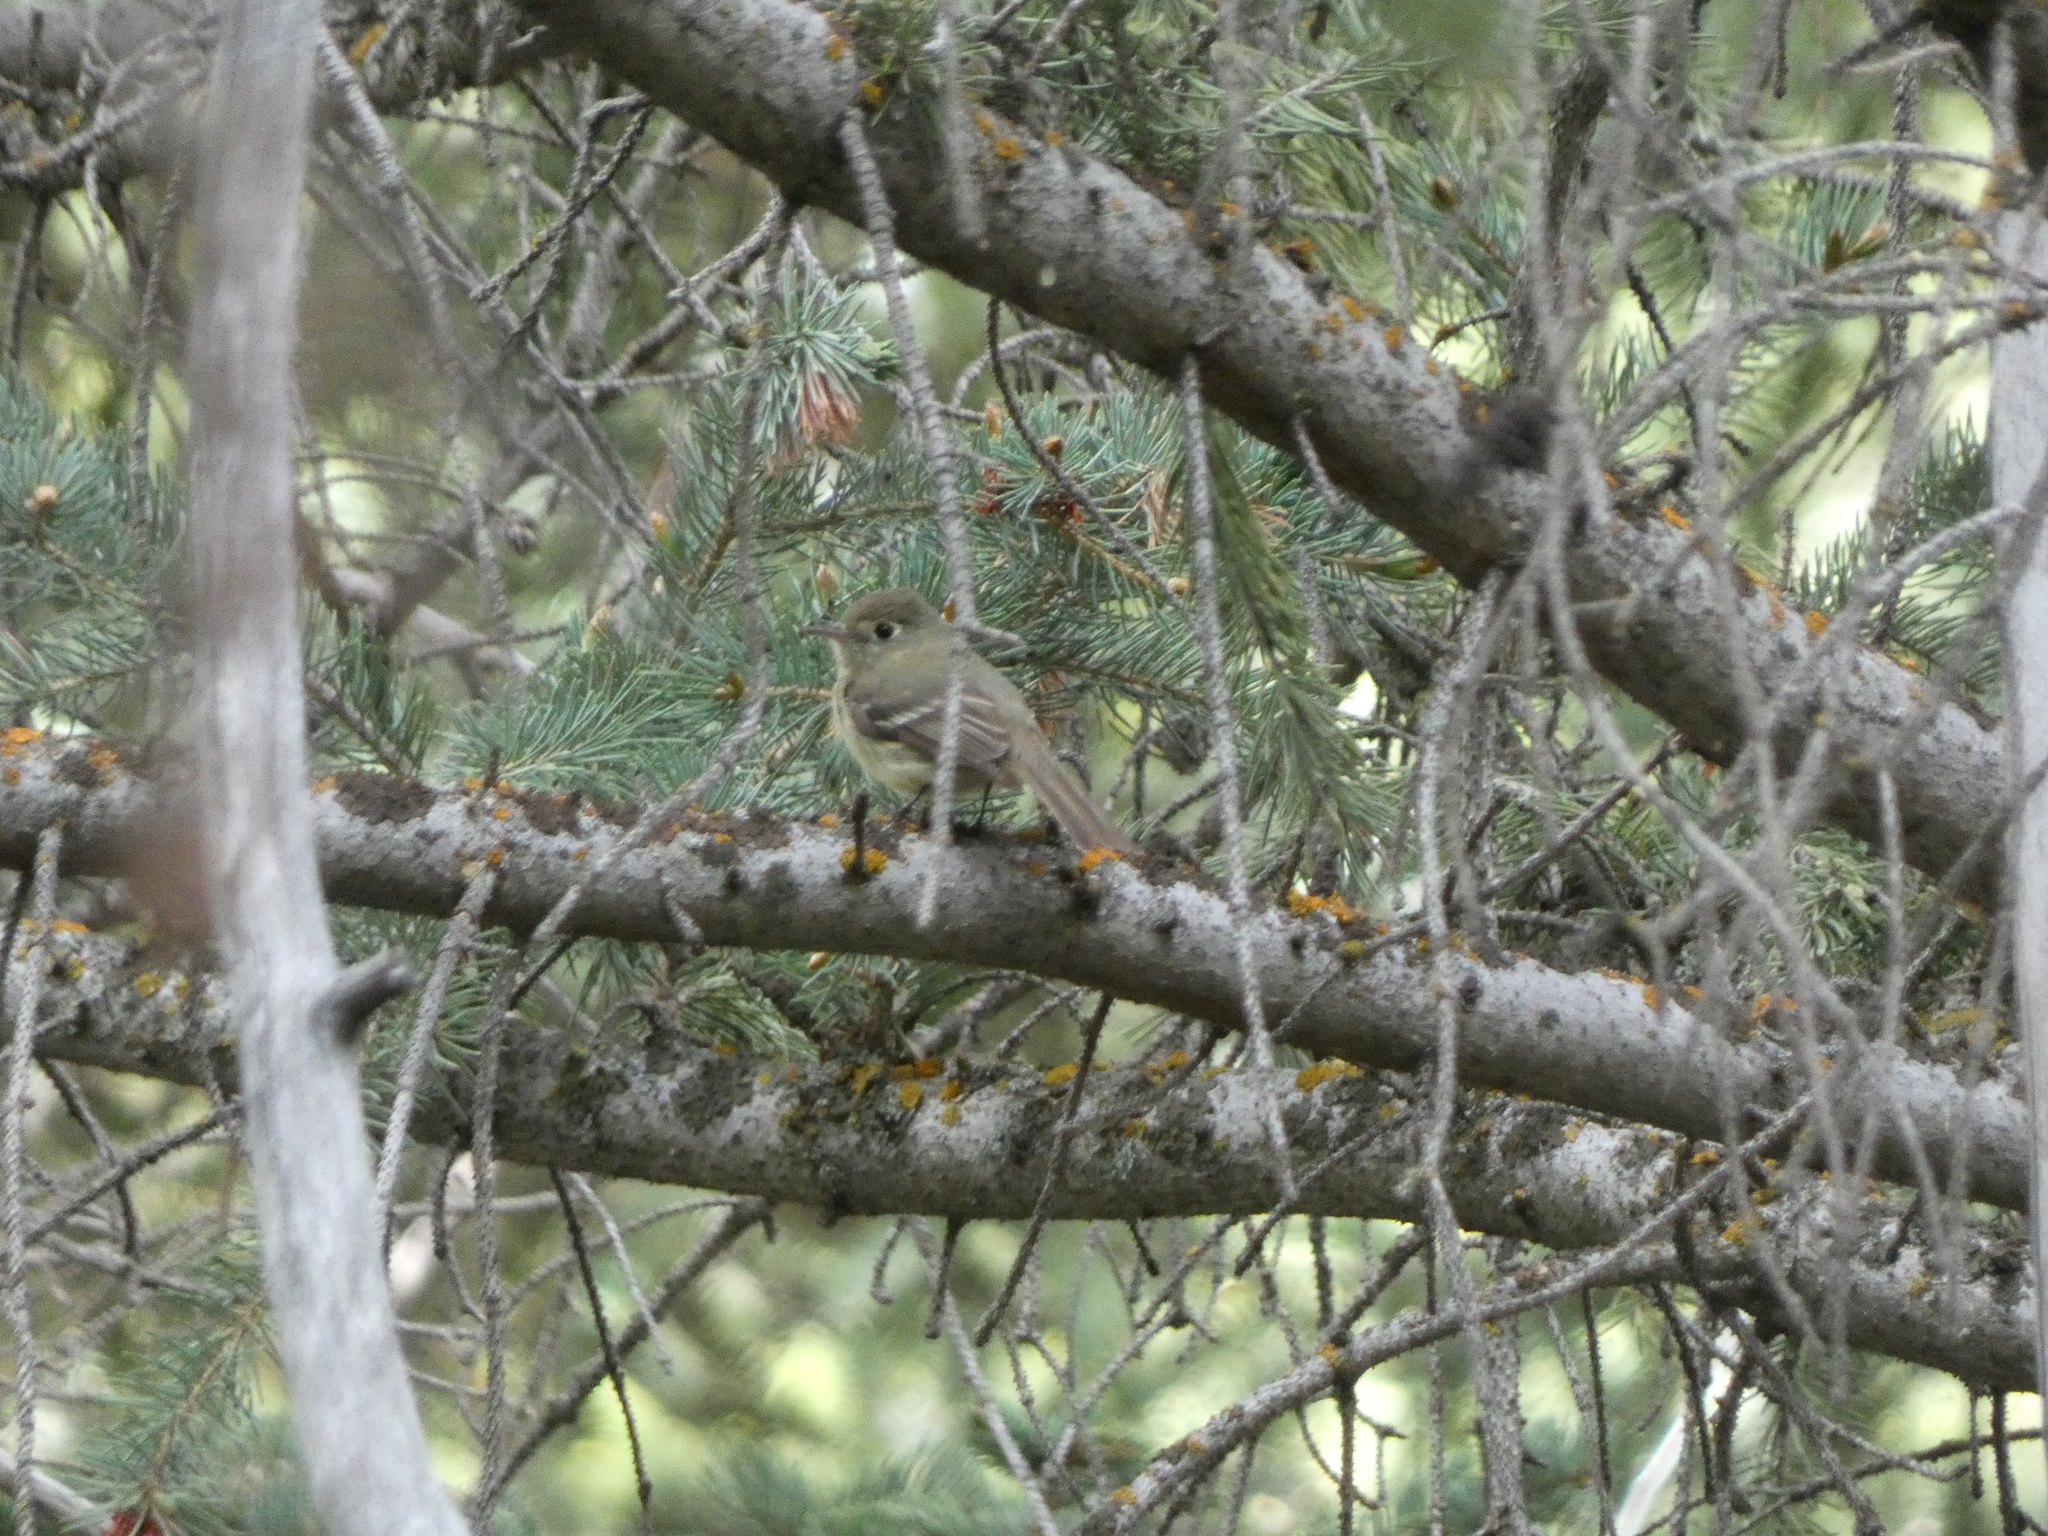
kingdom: Animalia
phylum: Chordata
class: Aves
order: Passeriformes
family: Tyrannidae
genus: Empidonax
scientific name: Empidonax difficilis
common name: Pacific-slope flycatcher
